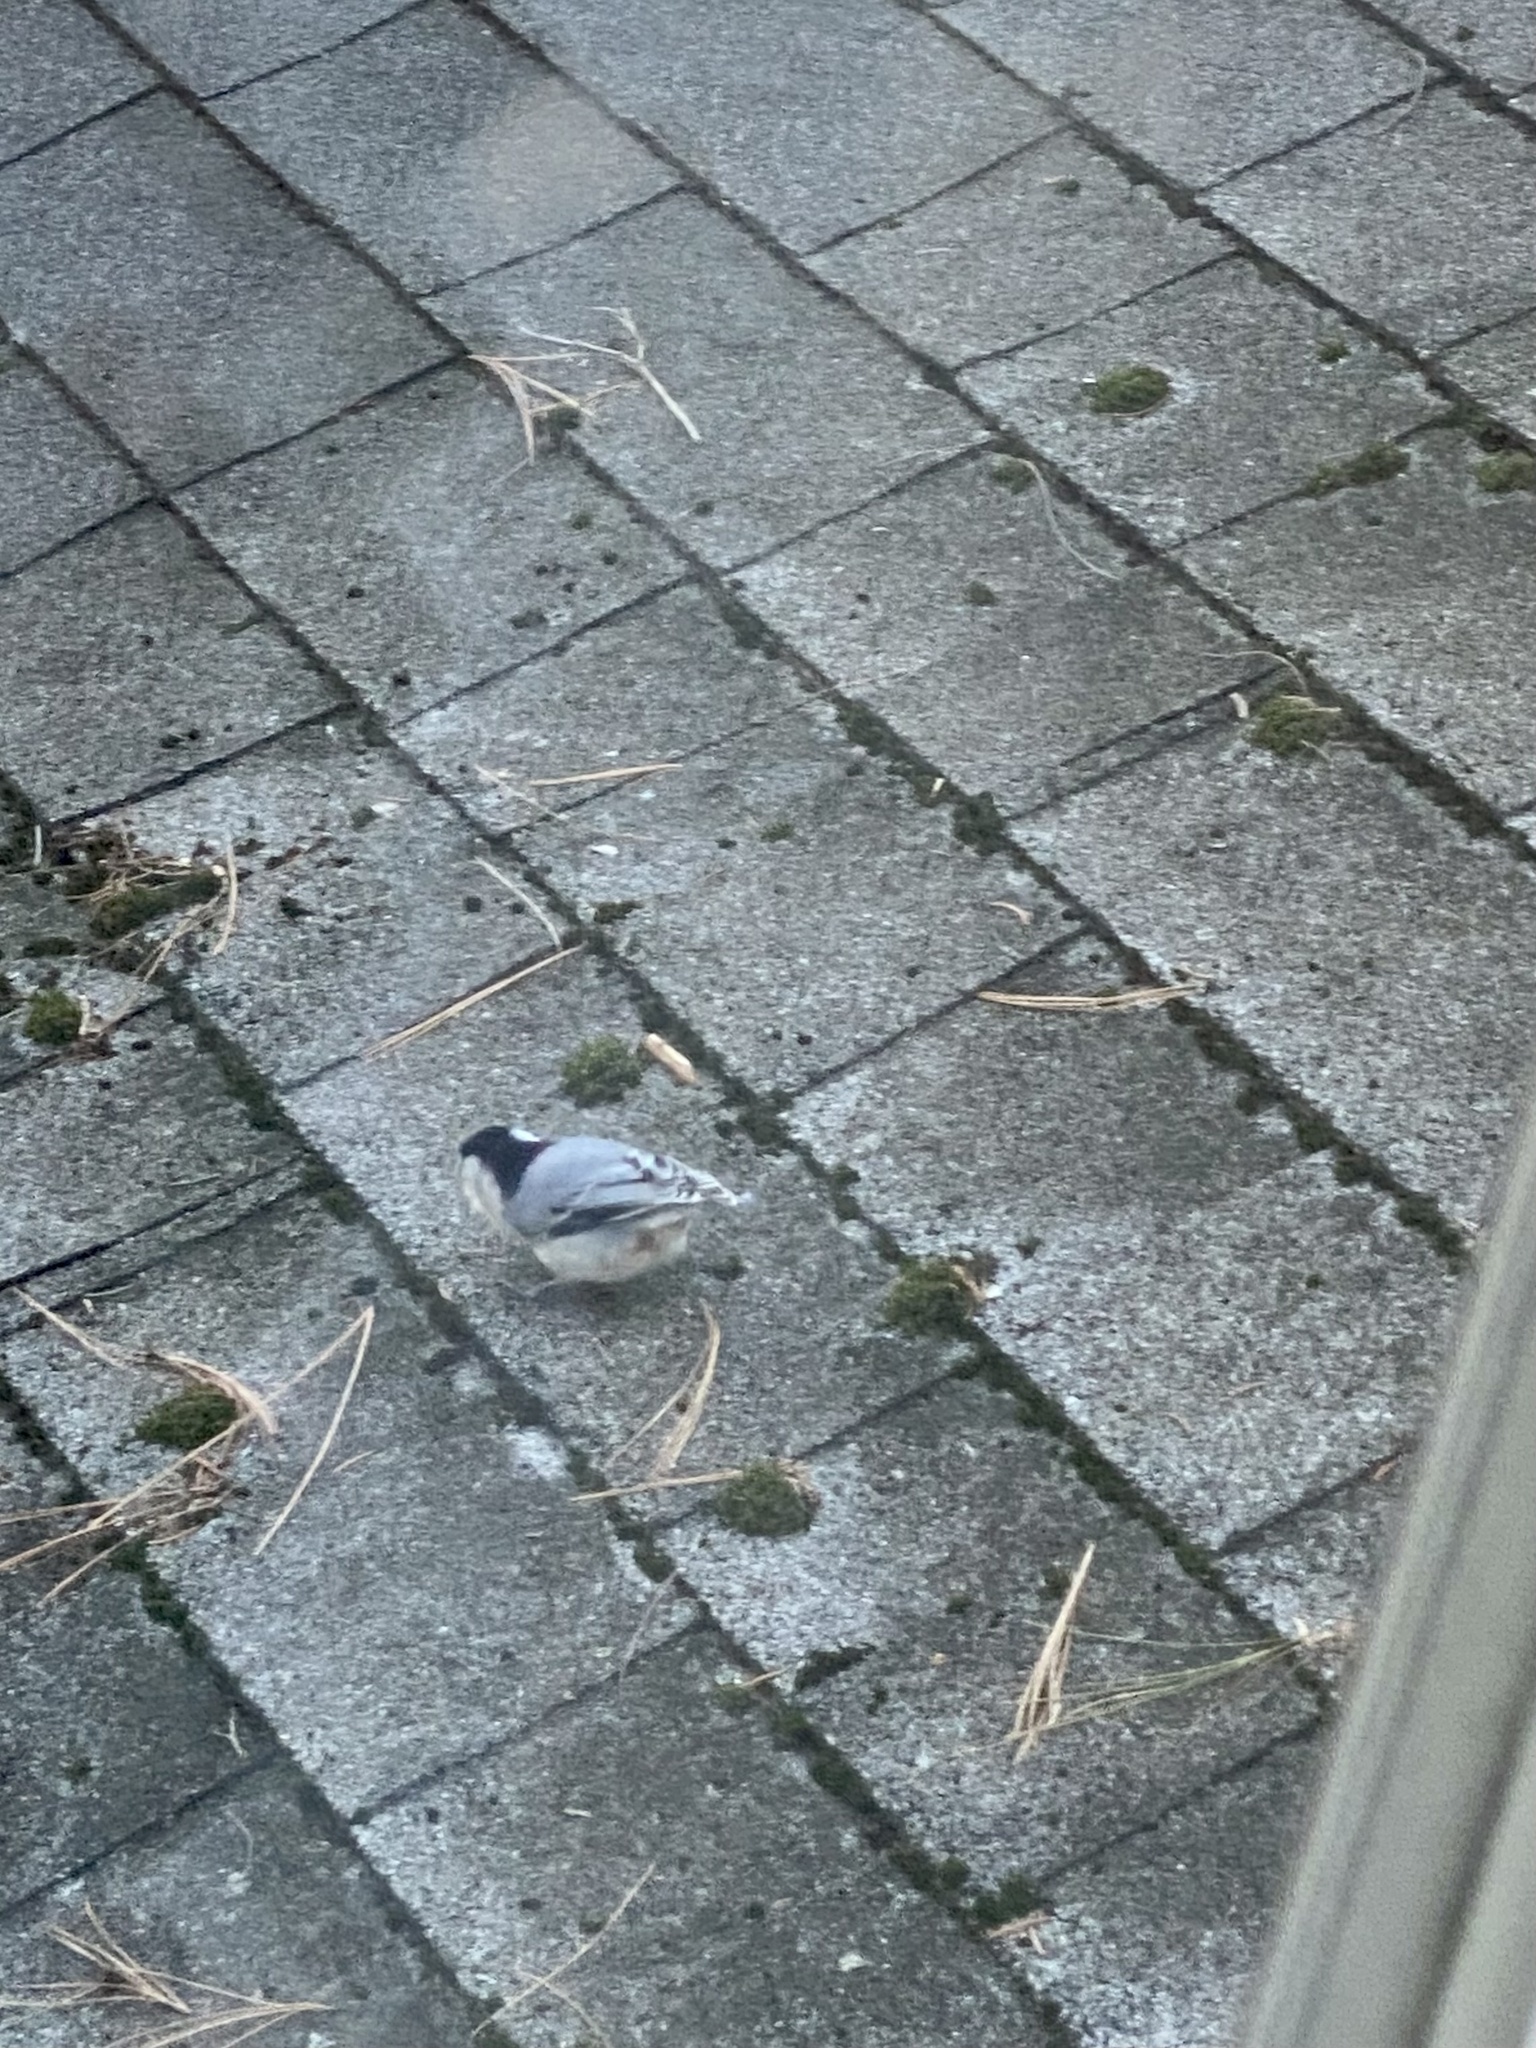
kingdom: Animalia
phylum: Chordata
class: Aves
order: Passeriformes
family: Sittidae
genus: Sitta
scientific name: Sitta carolinensis
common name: White-breasted nuthatch
